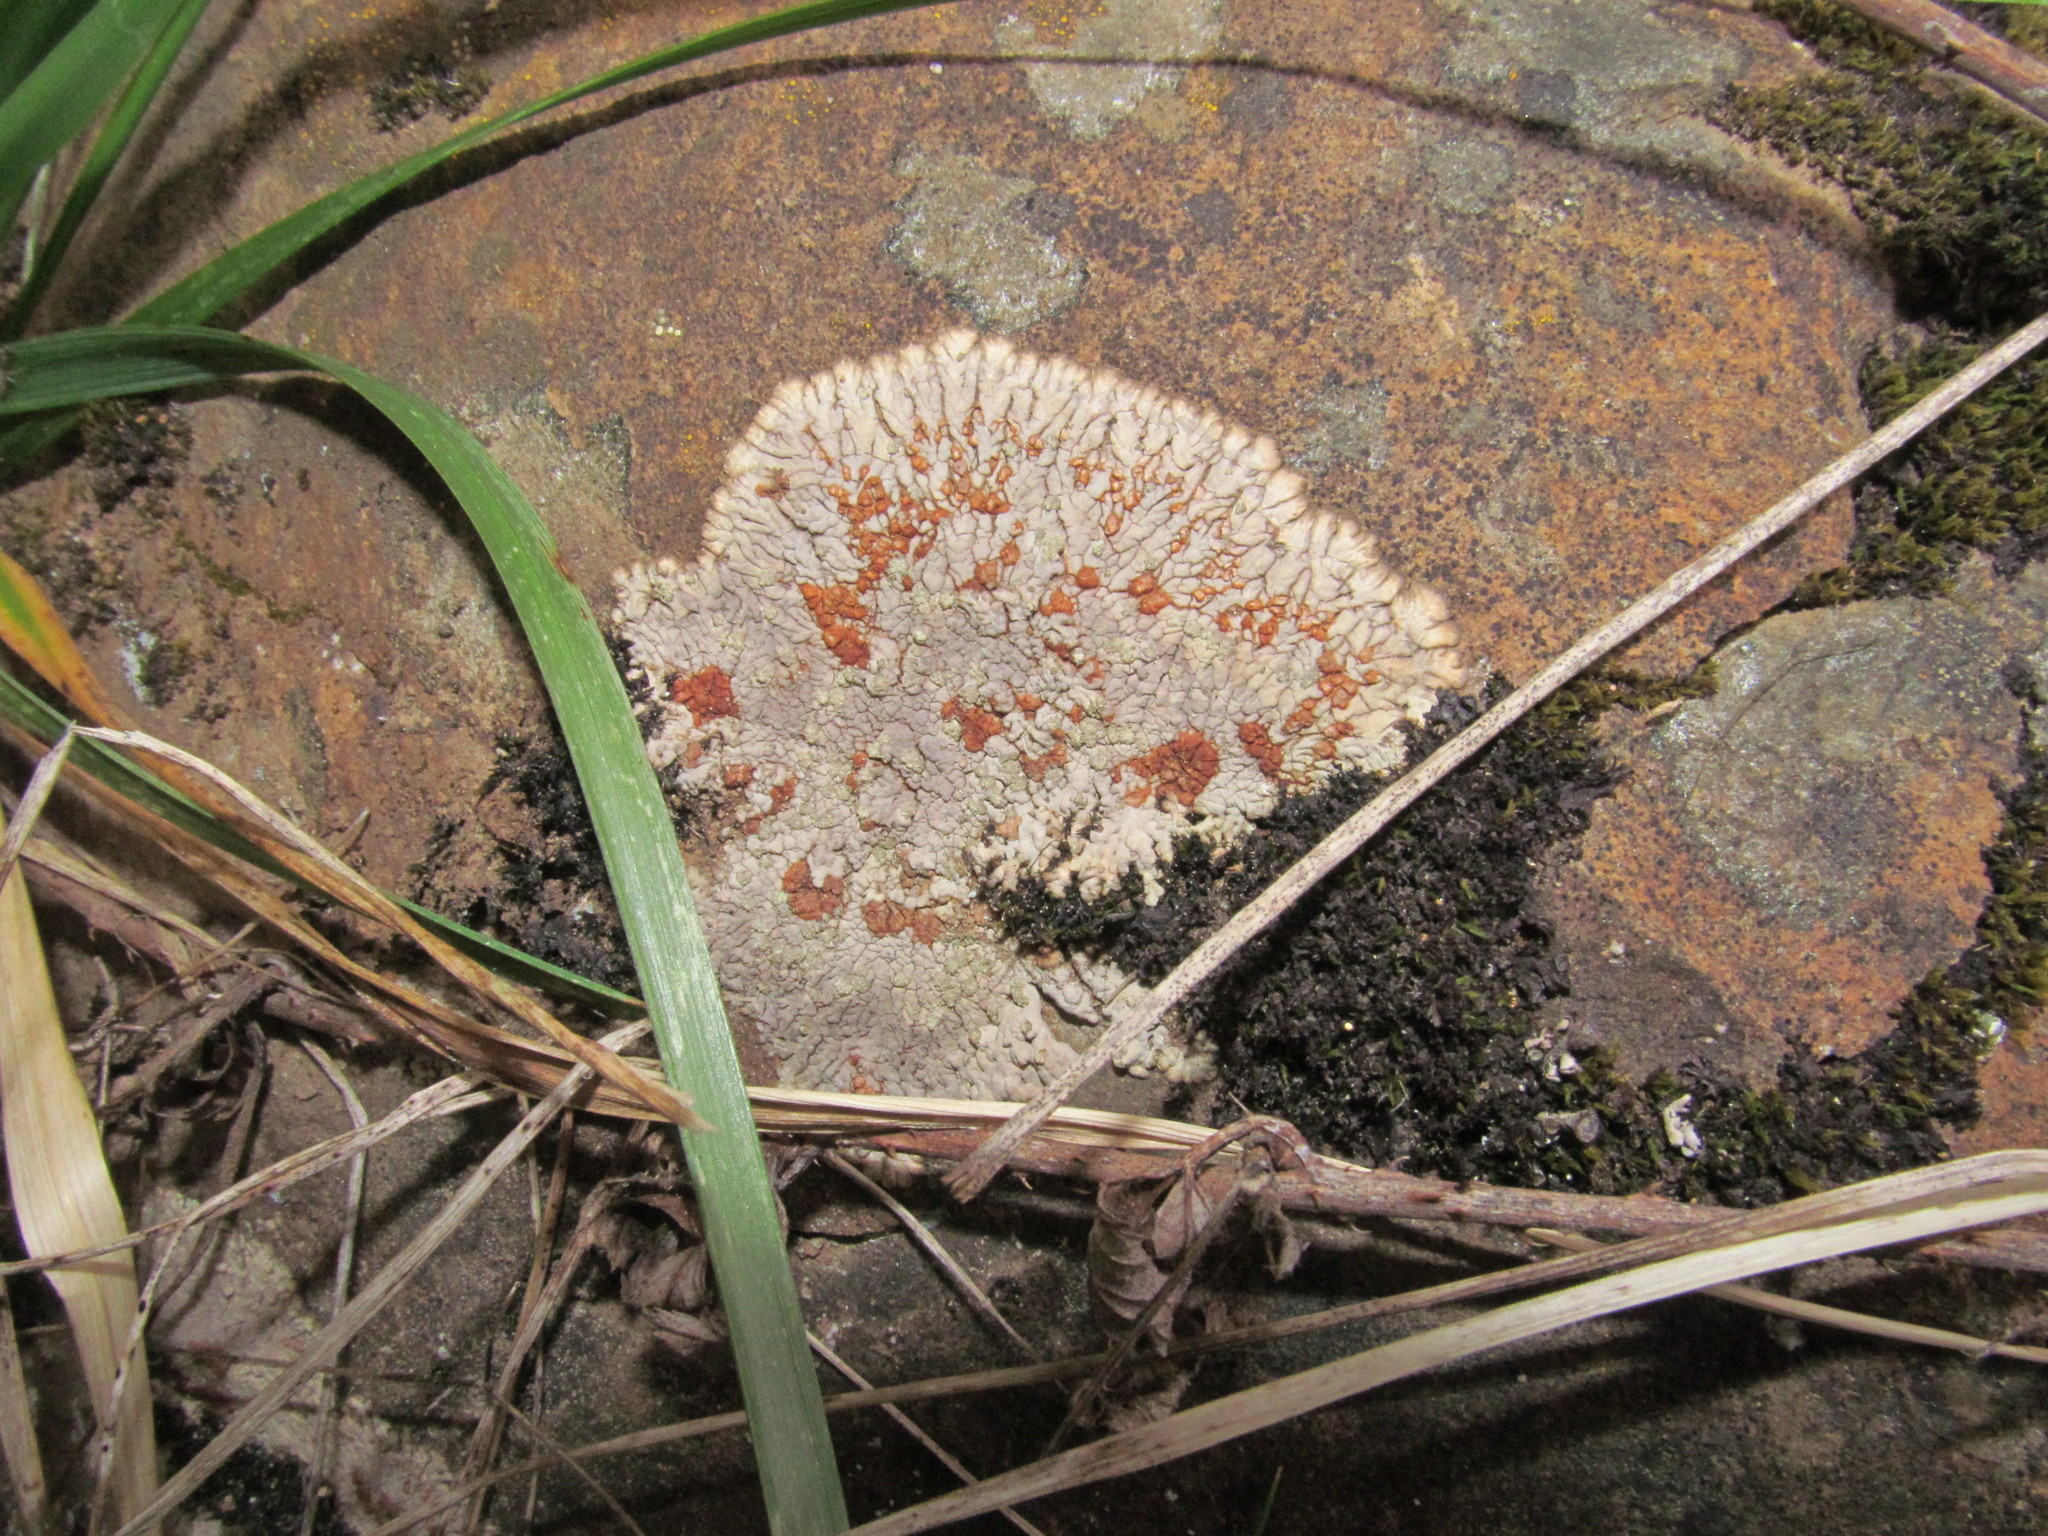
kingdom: Fungi
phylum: Ascomycota
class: Lecanoromycetes
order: Baeomycetales
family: Trapeliaceae
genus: Placopsis
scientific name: Placopsis lambii
